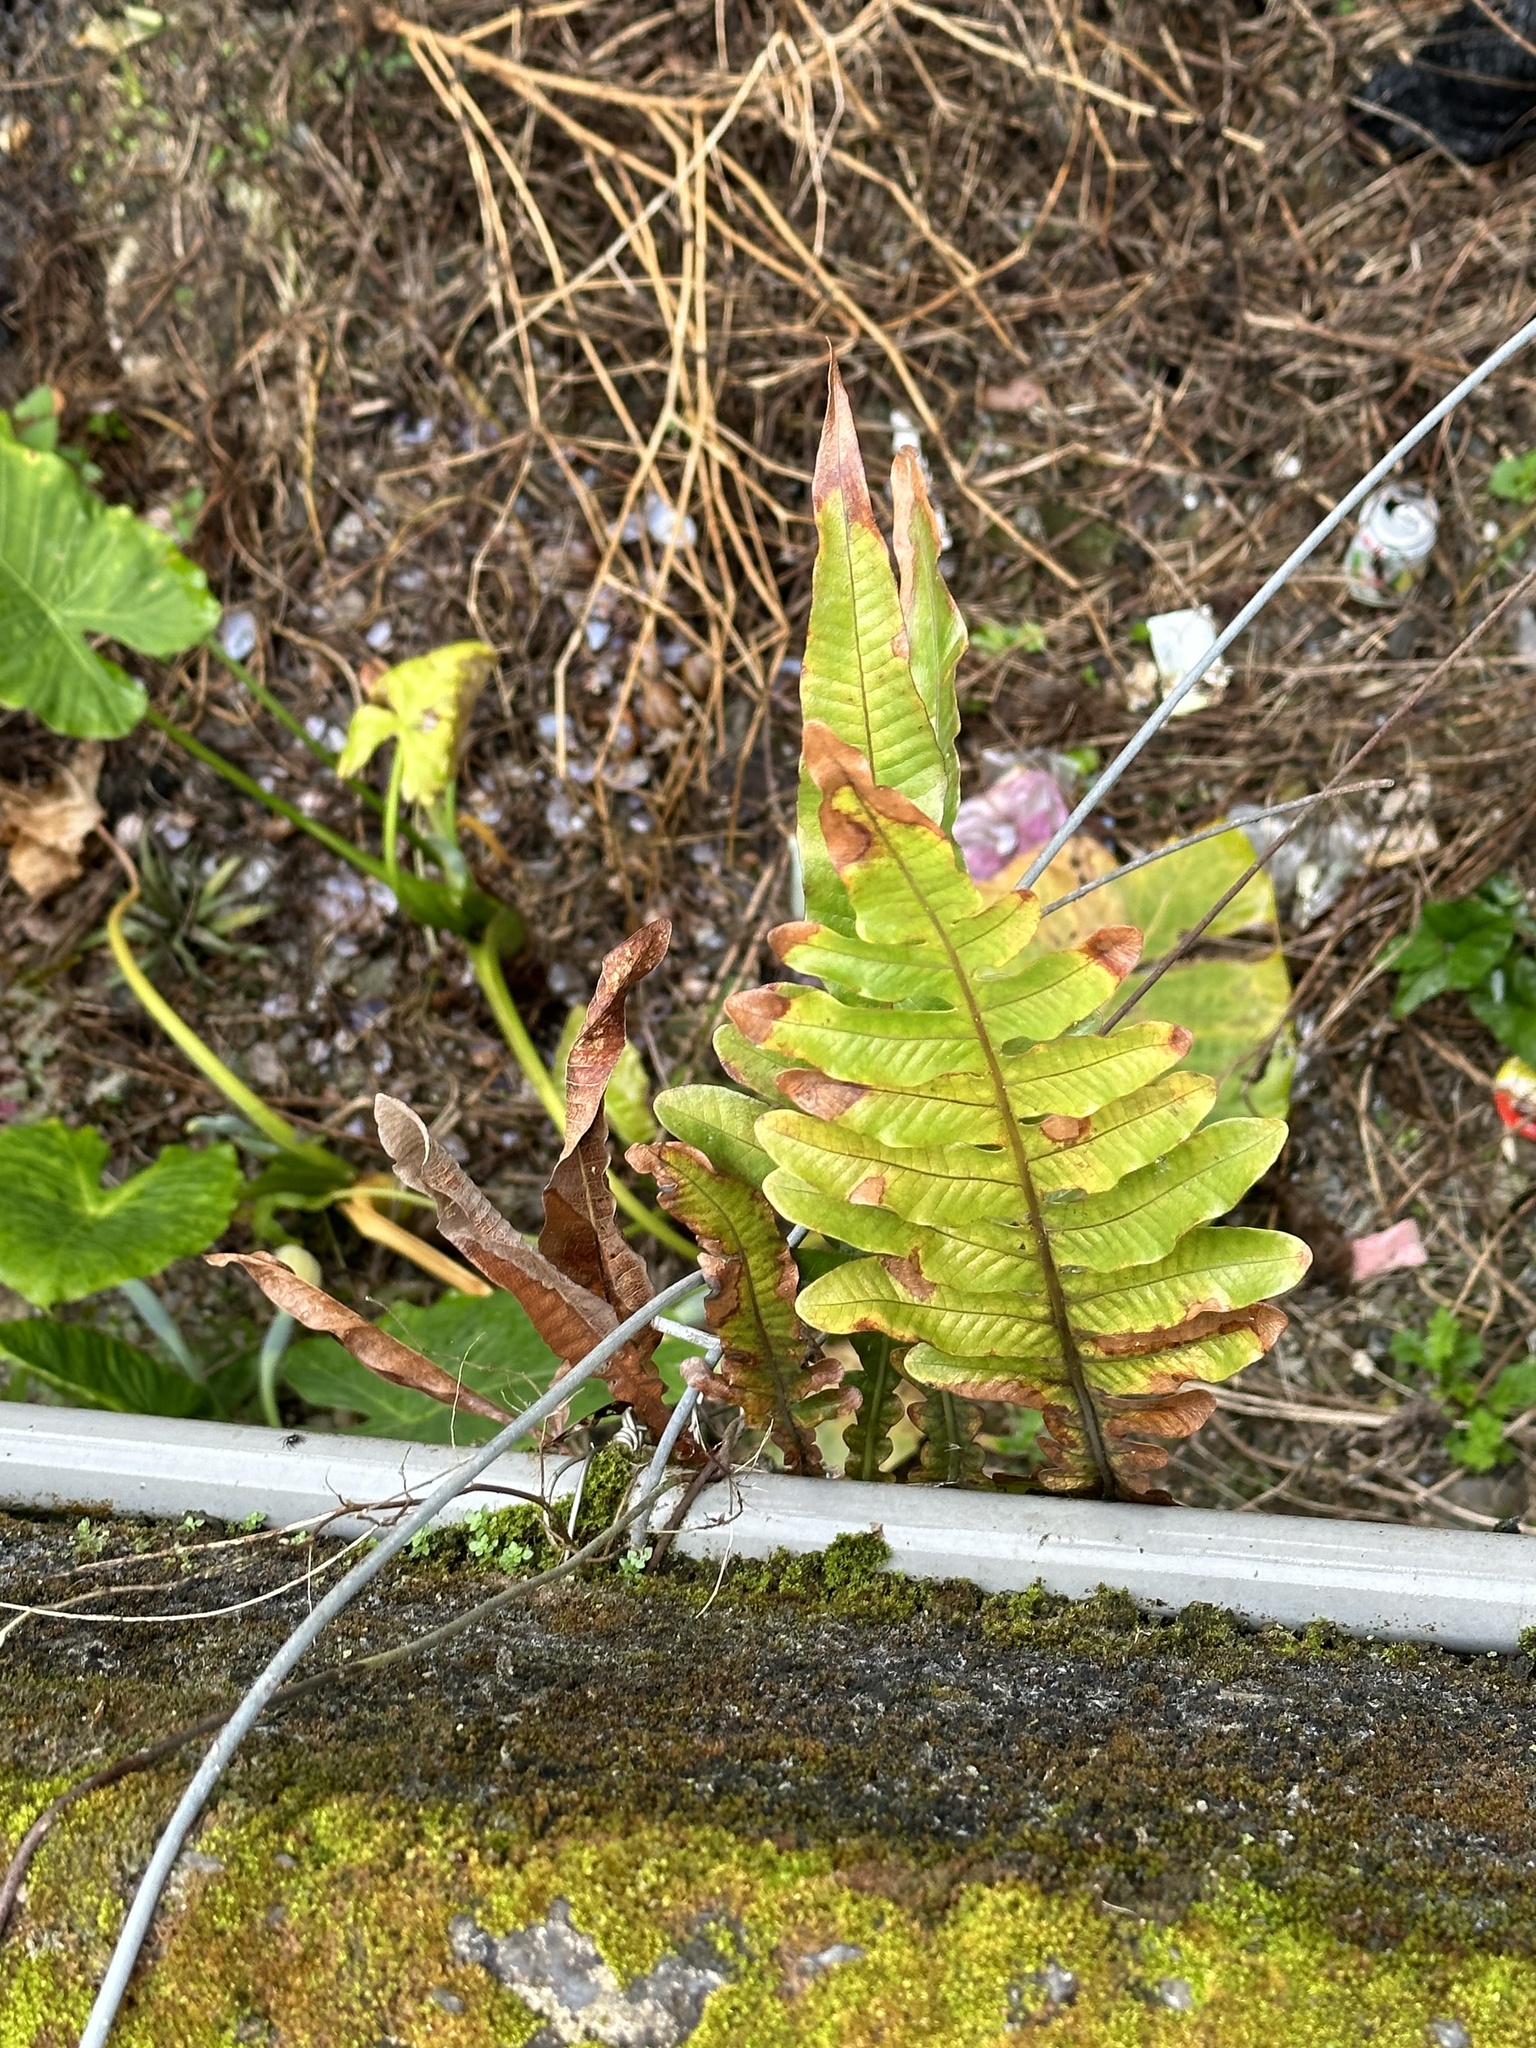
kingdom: Plantae
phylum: Tracheophyta
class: Polypodiopsida
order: Polypodiales
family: Polypodiaceae
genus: Drynaria
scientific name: Drynaria coronans
